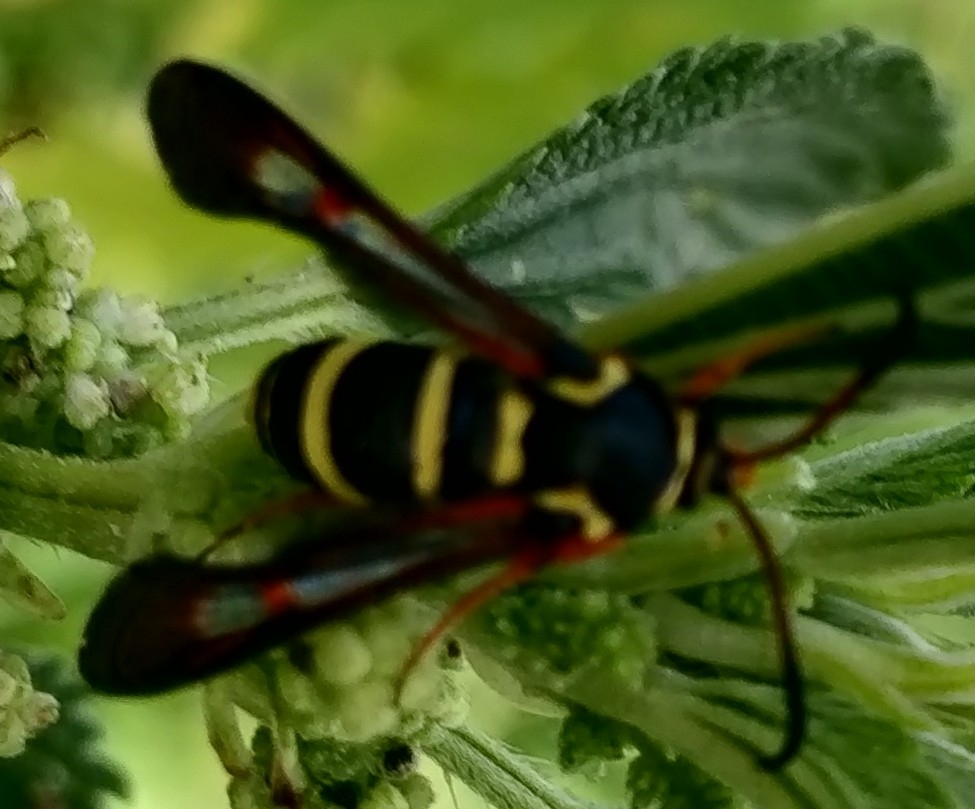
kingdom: Animalia
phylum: Arthropoda
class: Insecta
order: Lepidoptera
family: Sesiidae
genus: Carmenta
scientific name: Carmenta mimuli
